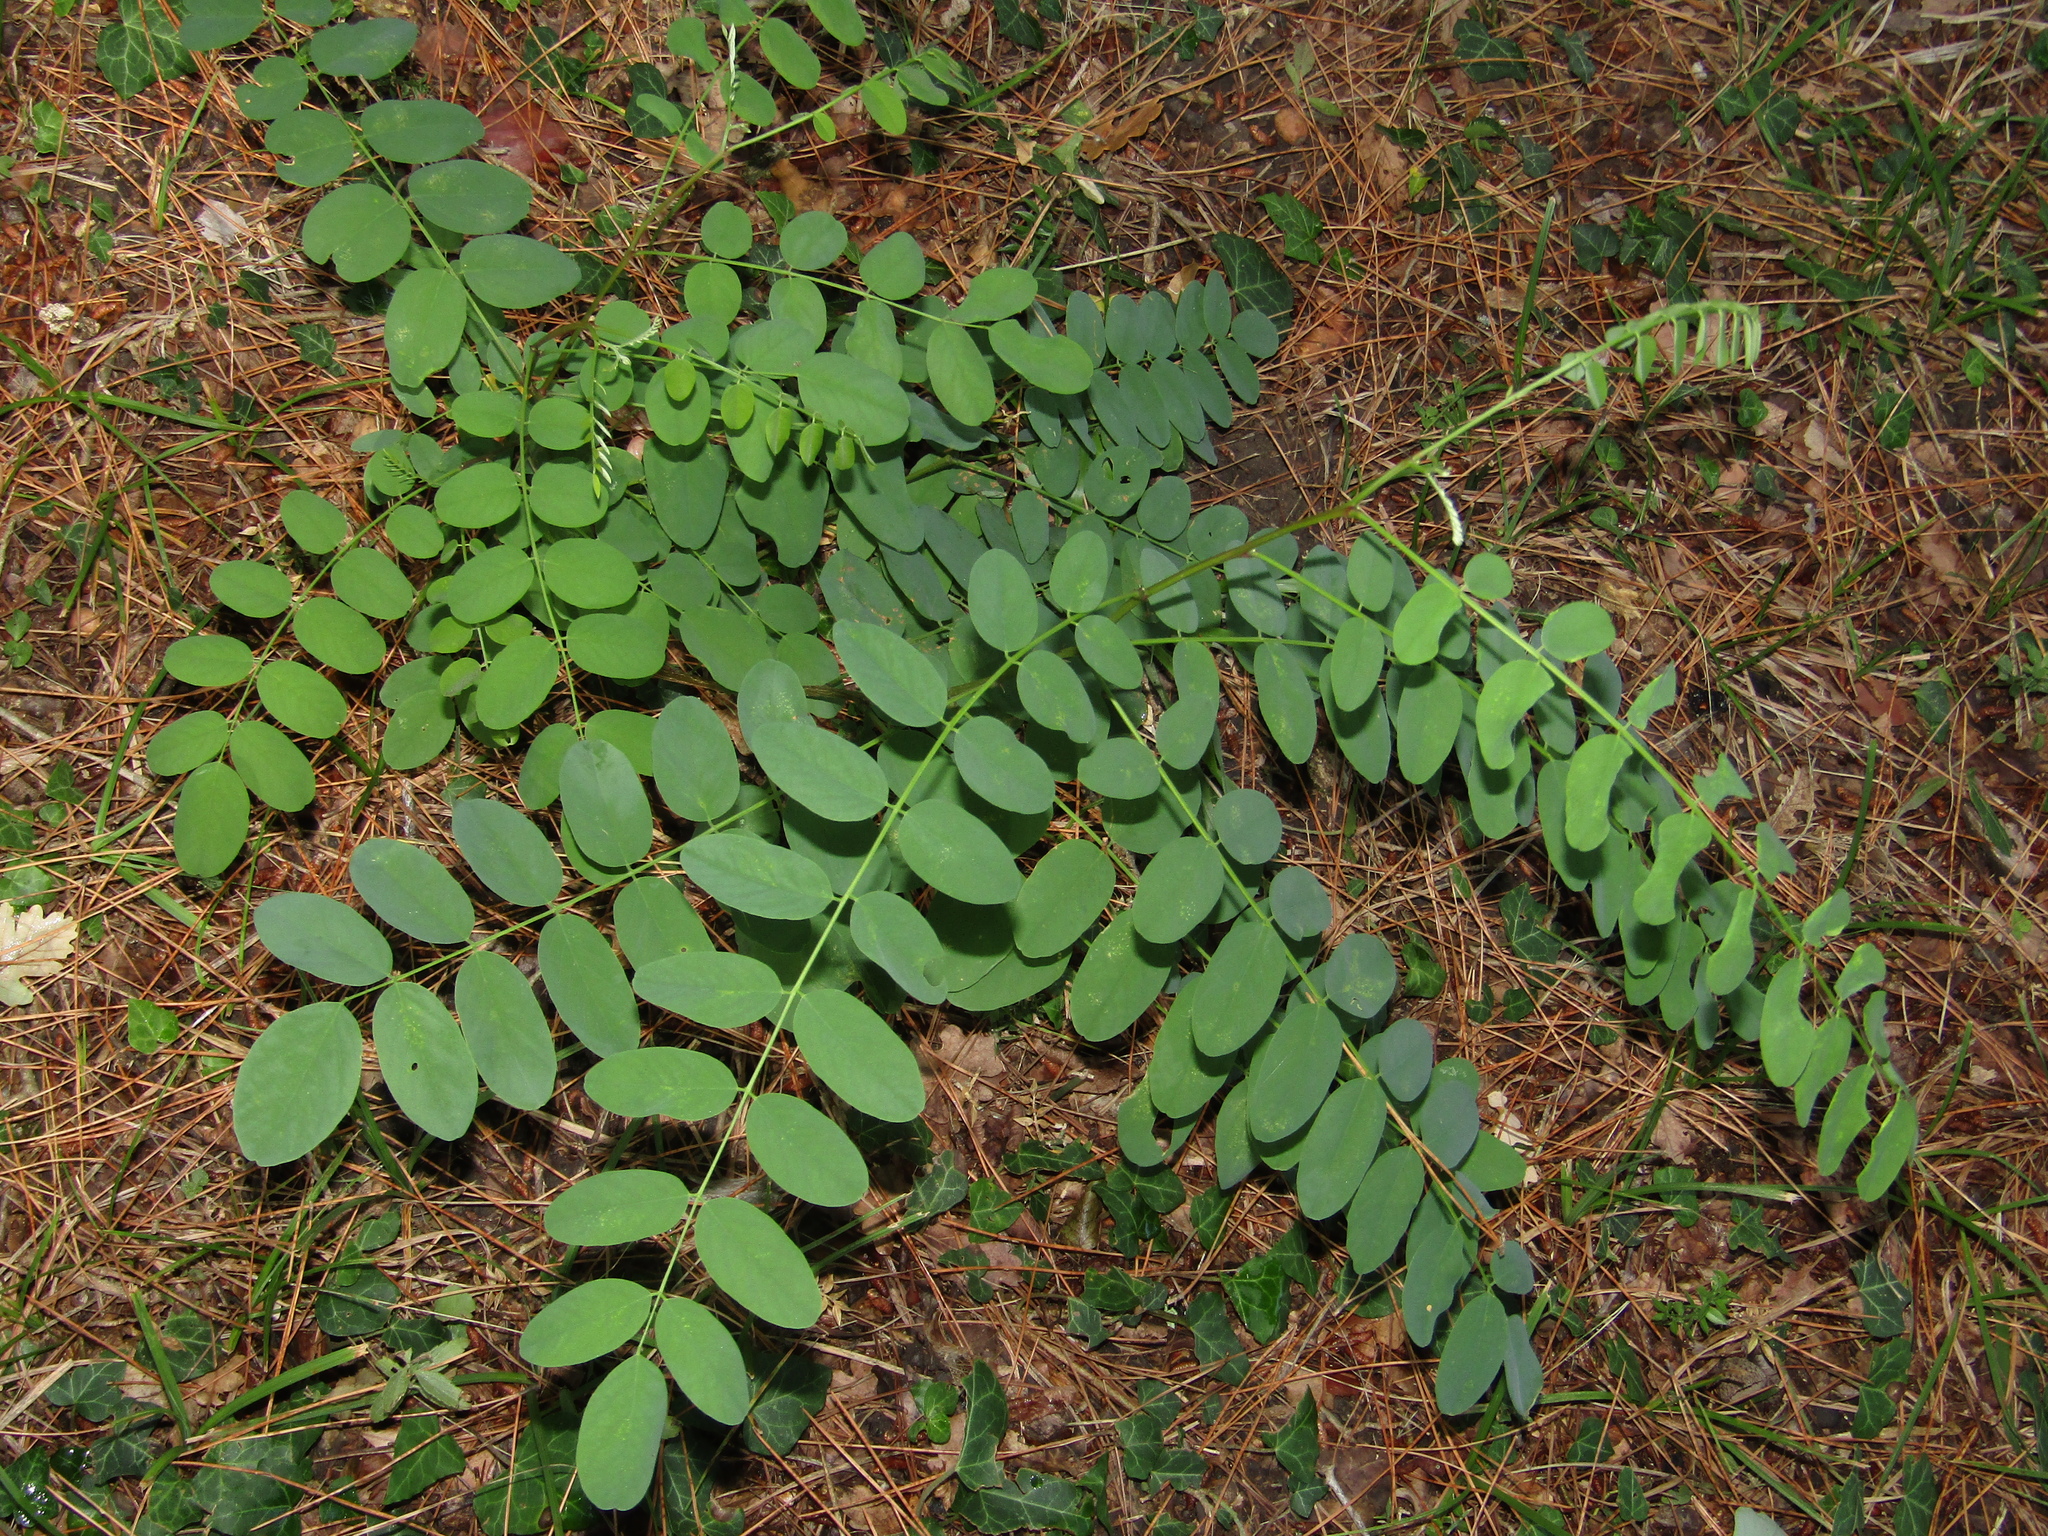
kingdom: Plantae
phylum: Tracheophyta
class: Magnoliopsida
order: Fabales
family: Fabaceae
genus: Robinia
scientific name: Robinia pseudoacacia
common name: Black locust
